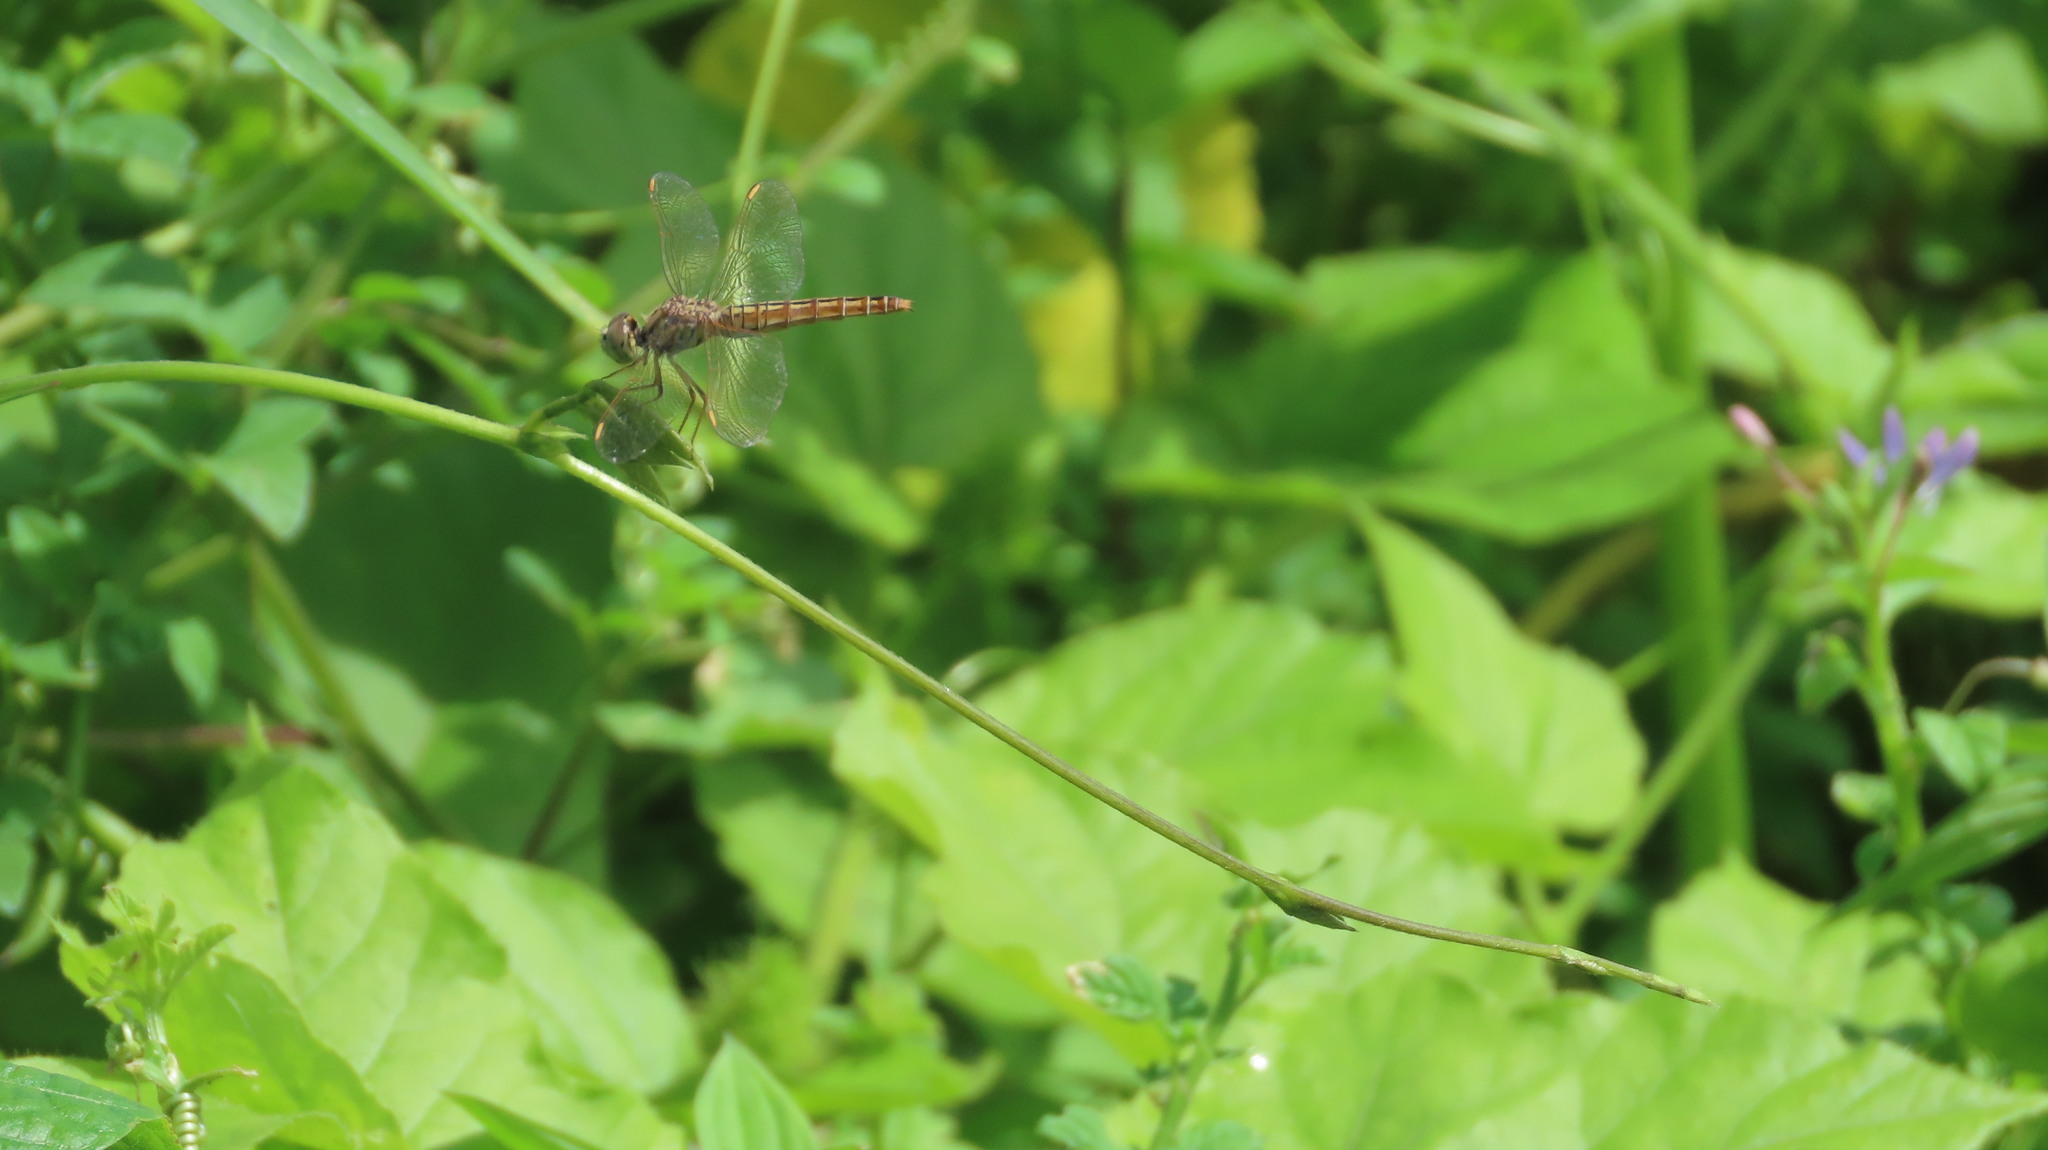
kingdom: Animalia
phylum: Arthropoda
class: Insecta
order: Odonata
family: Libellulidae
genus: Brachythemis
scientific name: Brachythemis contaminata
